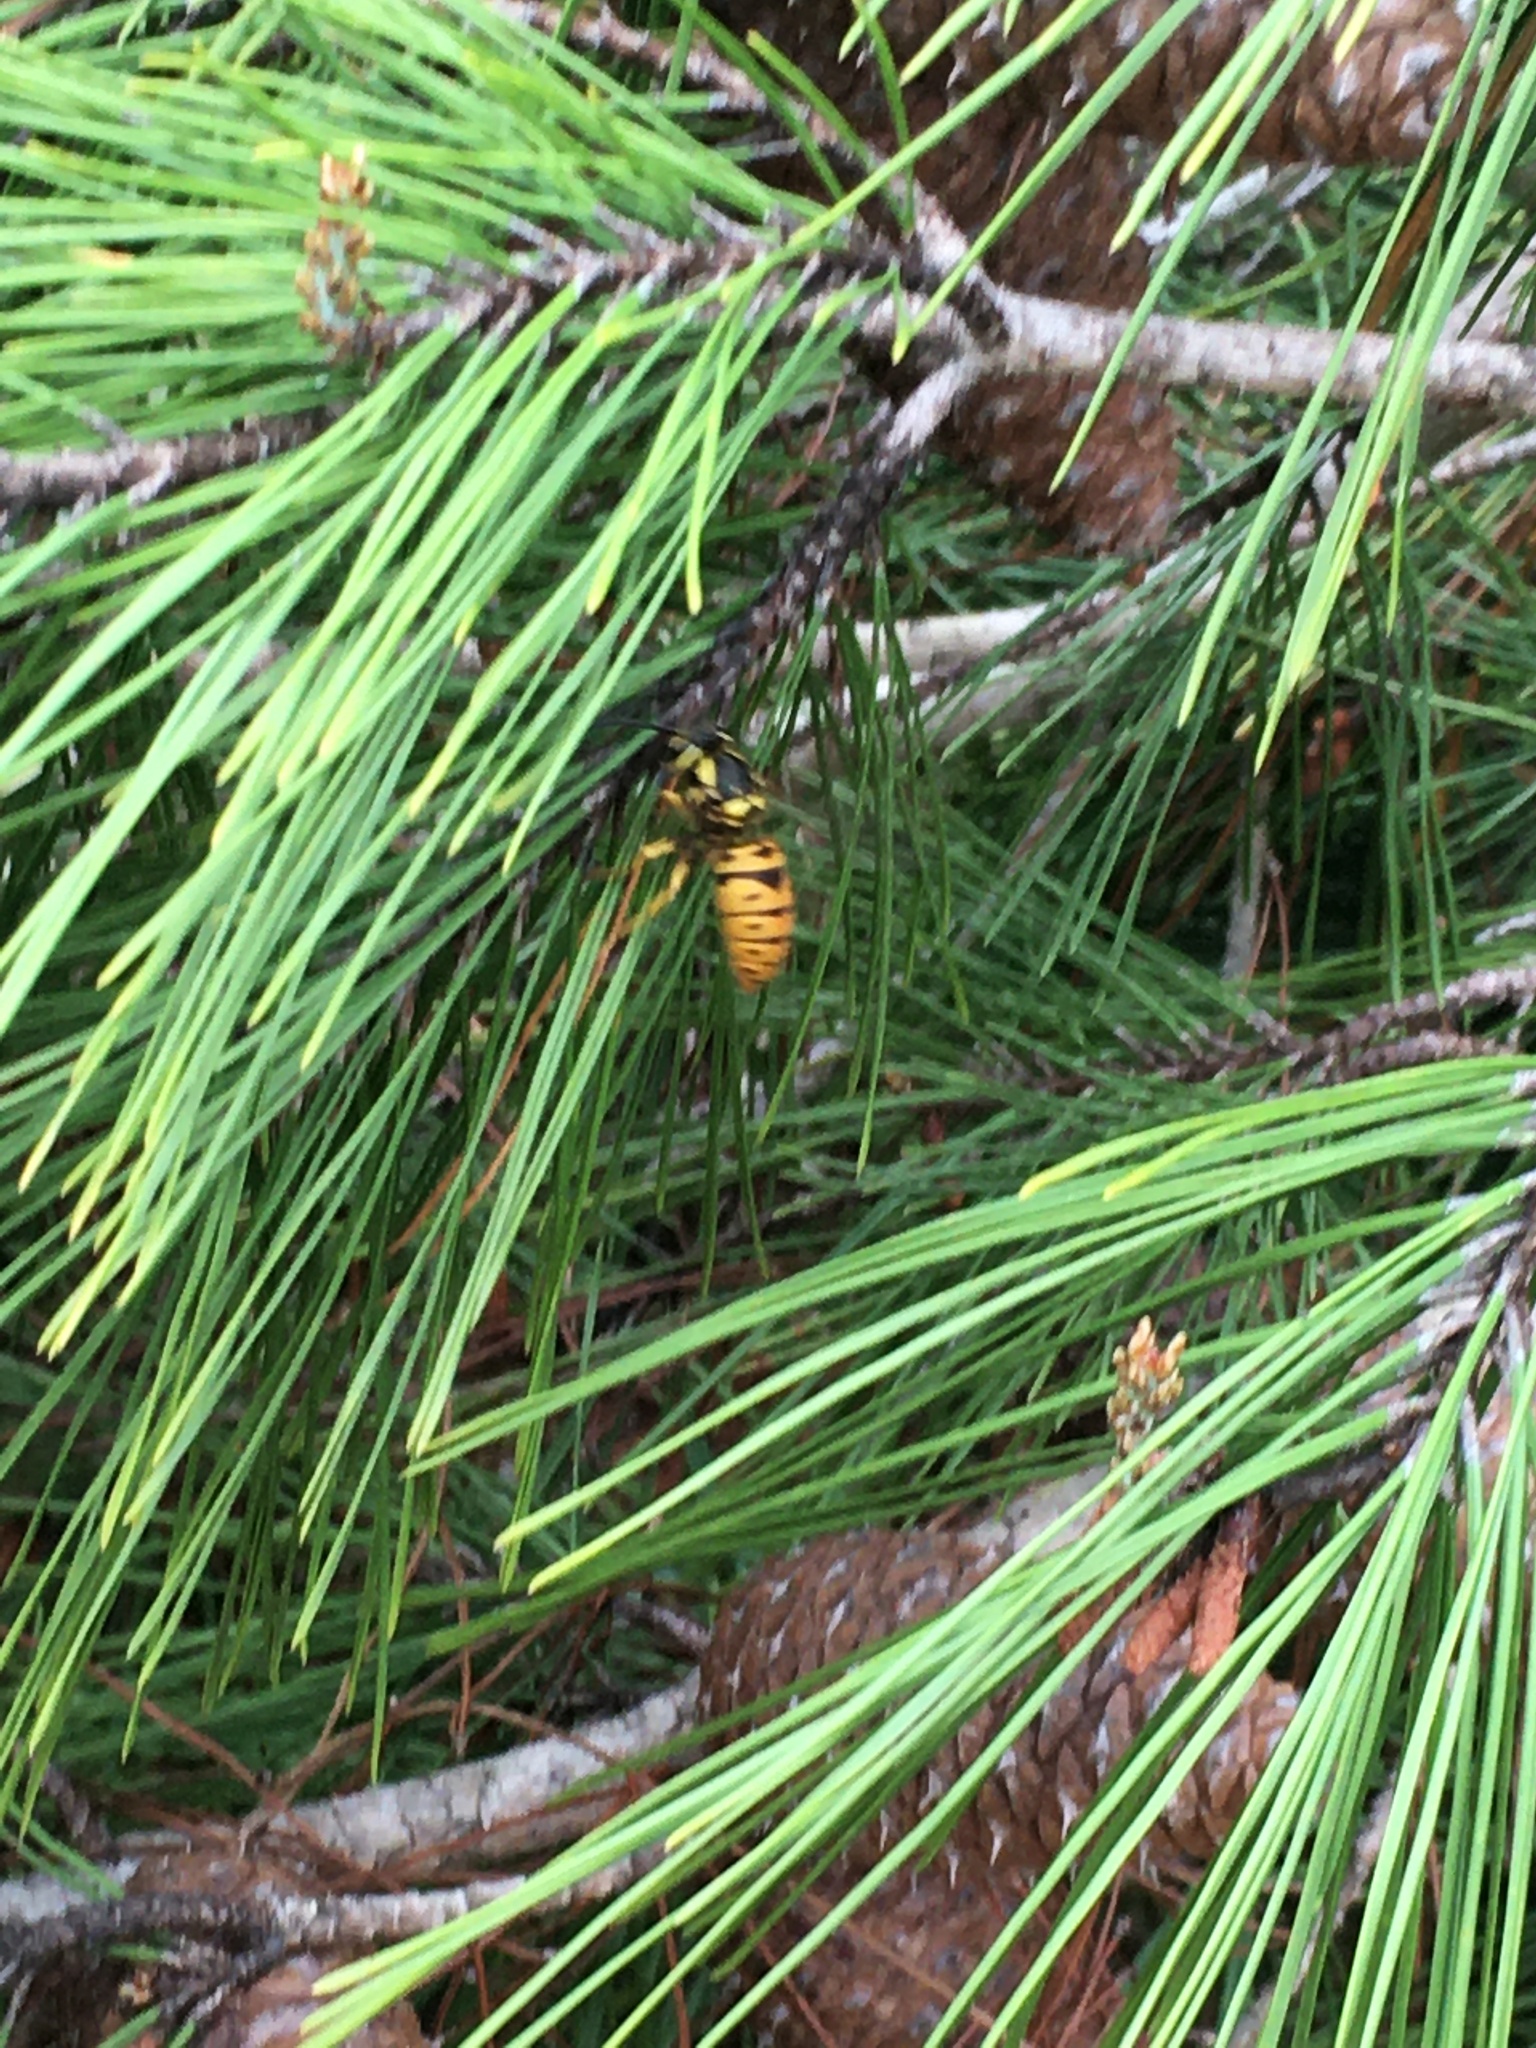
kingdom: Animalia
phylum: Arthropoda
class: Insecta
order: Hymenoptera
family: Vespidae
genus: Vespula
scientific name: Vespula maculifrons
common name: Eastern yellowjacket
